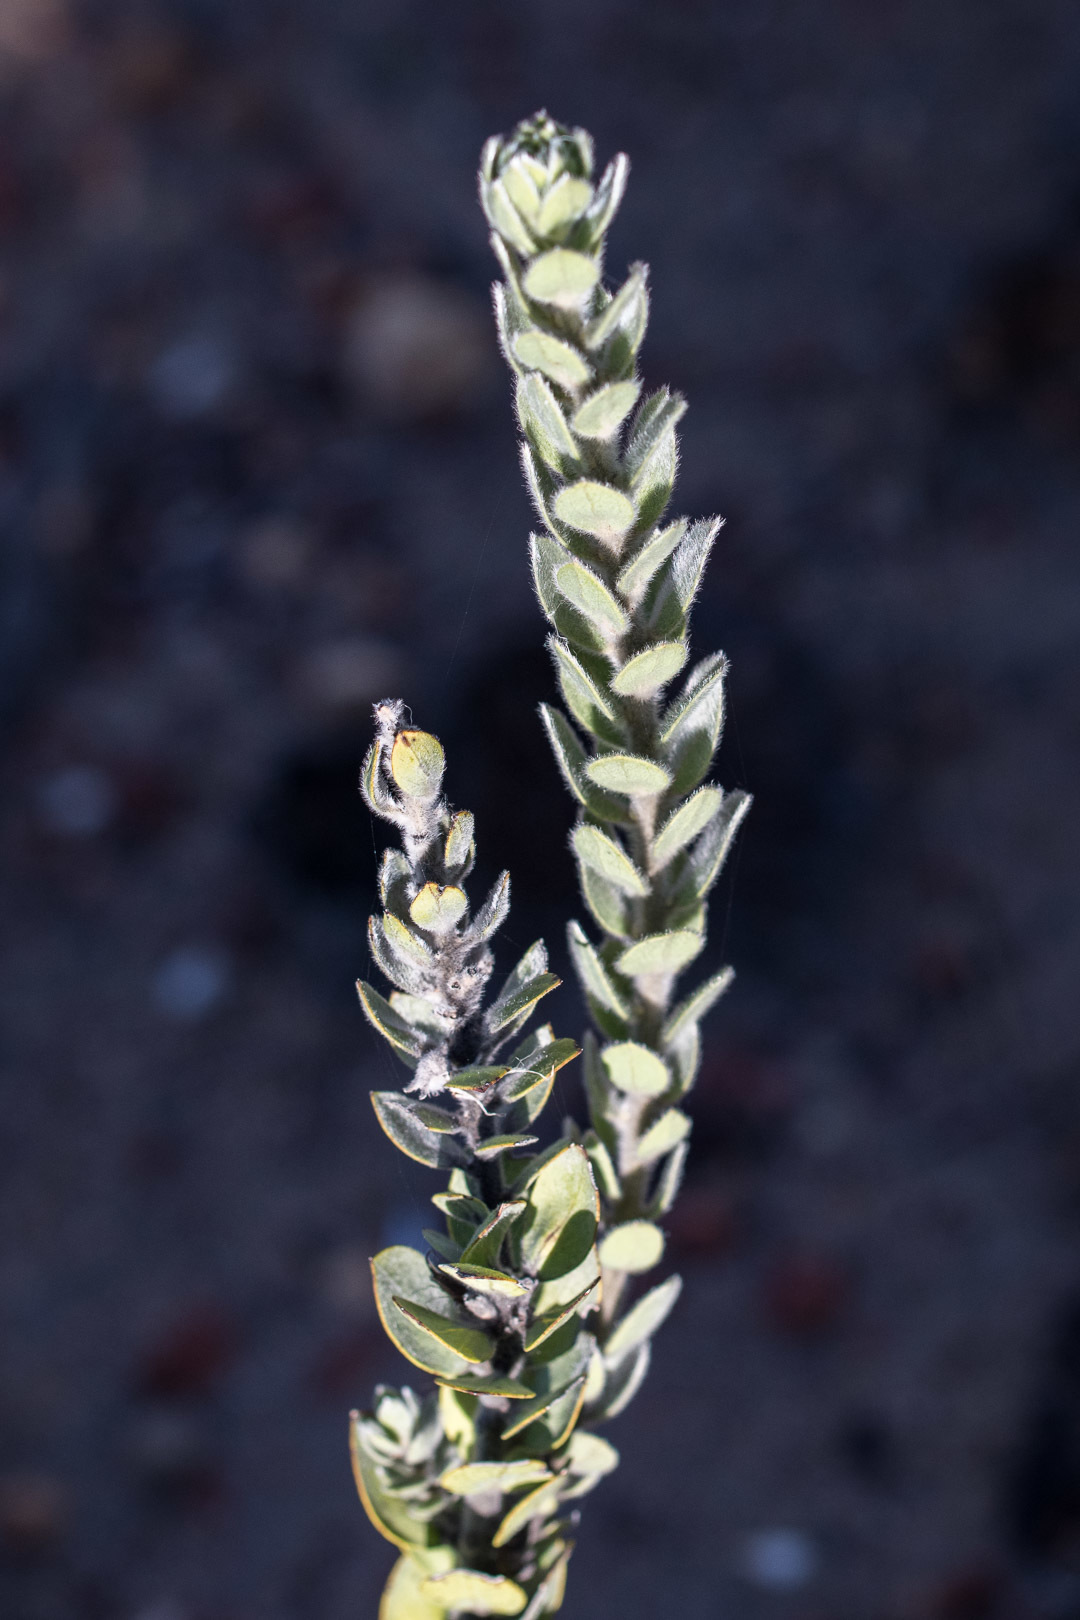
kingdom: Plantae
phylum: Tracheophyta
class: Magnoliopsida
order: Fabales
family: Fabaceae
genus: Xiphotheca
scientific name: Xiphotheca tecta
